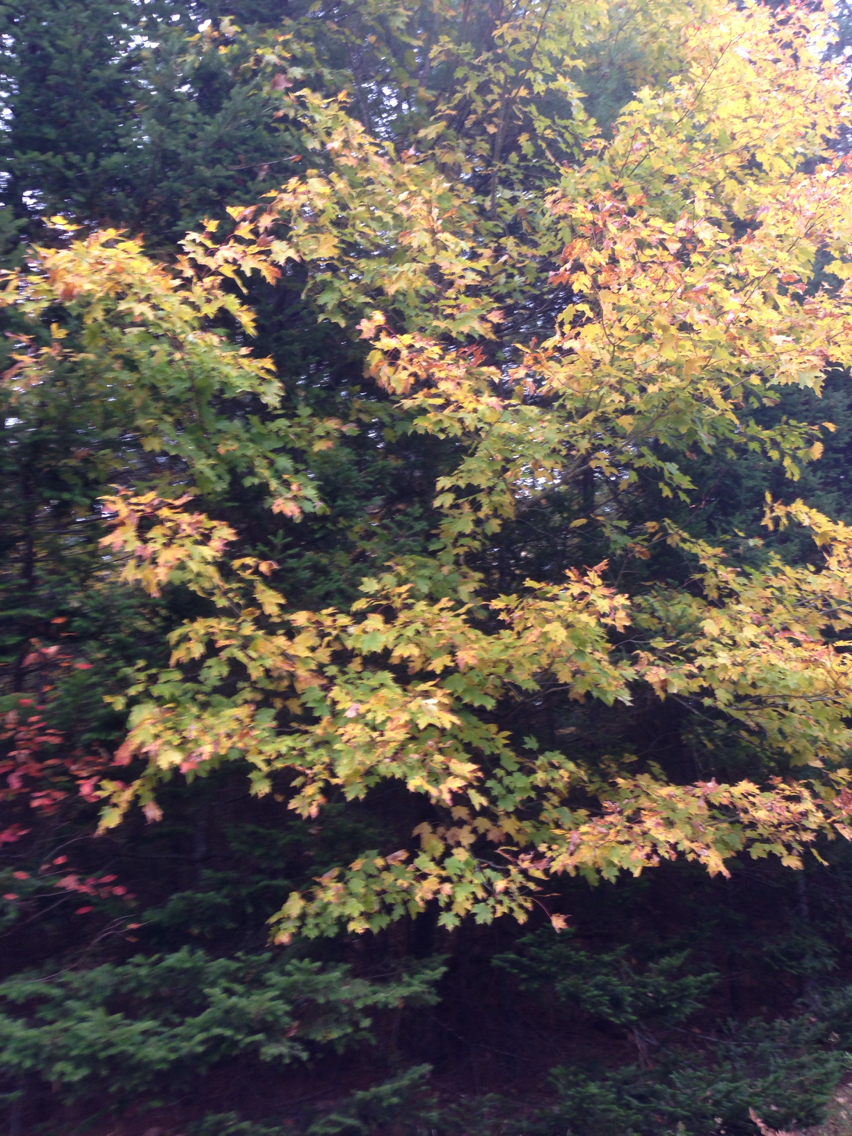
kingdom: Plantae
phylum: Tracheophyta
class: Magnoliopsida
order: Sapindales
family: Sapindaceae
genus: Acer
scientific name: Acer saccharum
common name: Sugar maple
